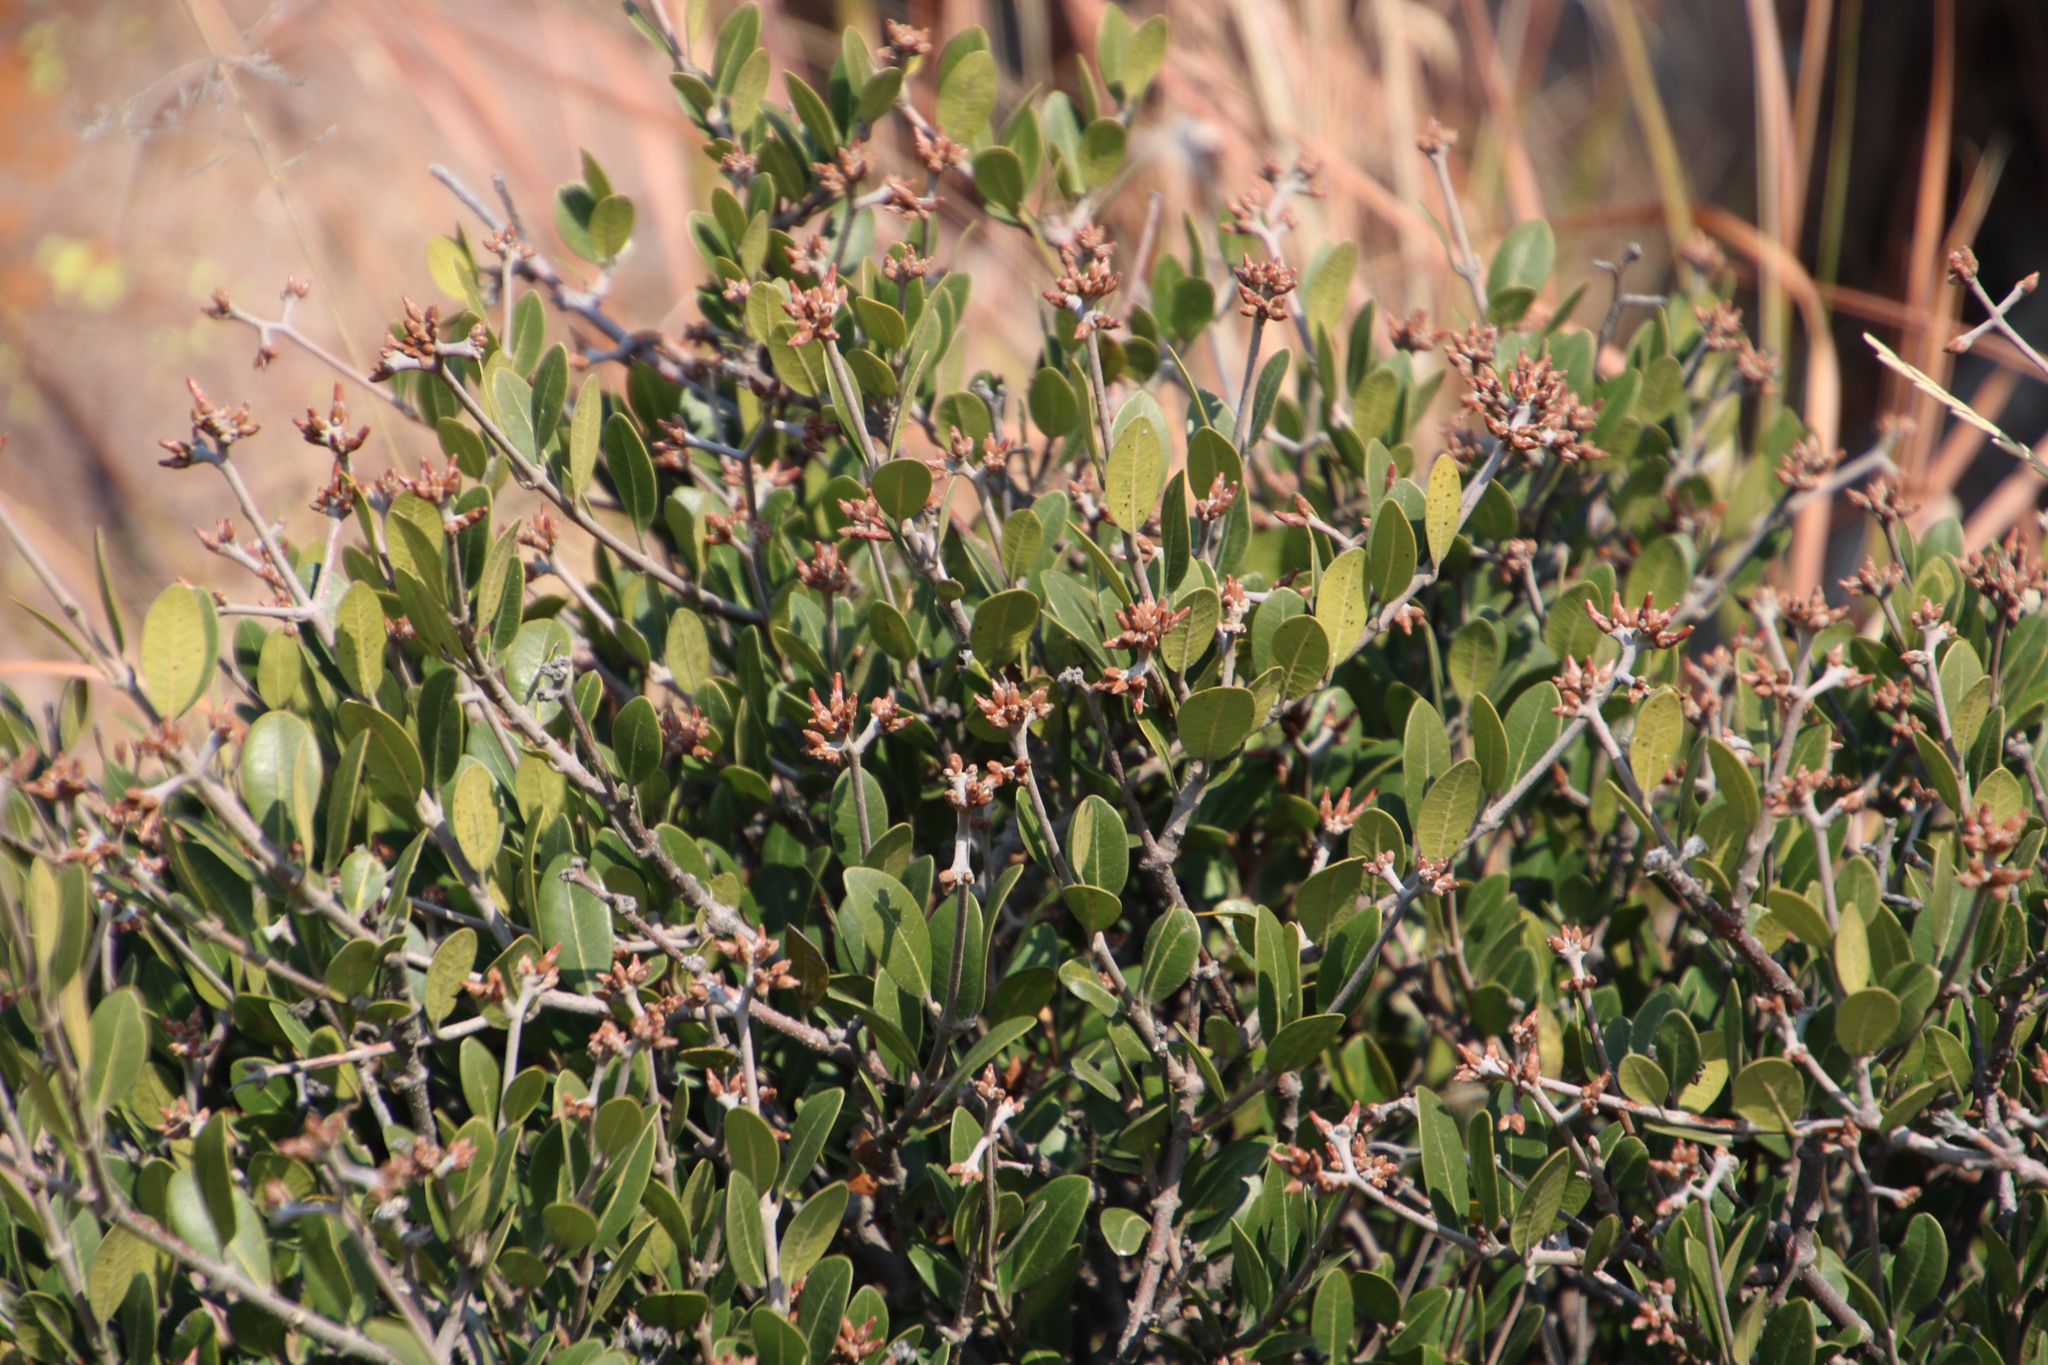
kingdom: Plantae
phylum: Tracheophyta
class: Magnoliopsida
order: Gentianales
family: Apocynaceae
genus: Ancylobothrys
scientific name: Ancylobothrys capensis
